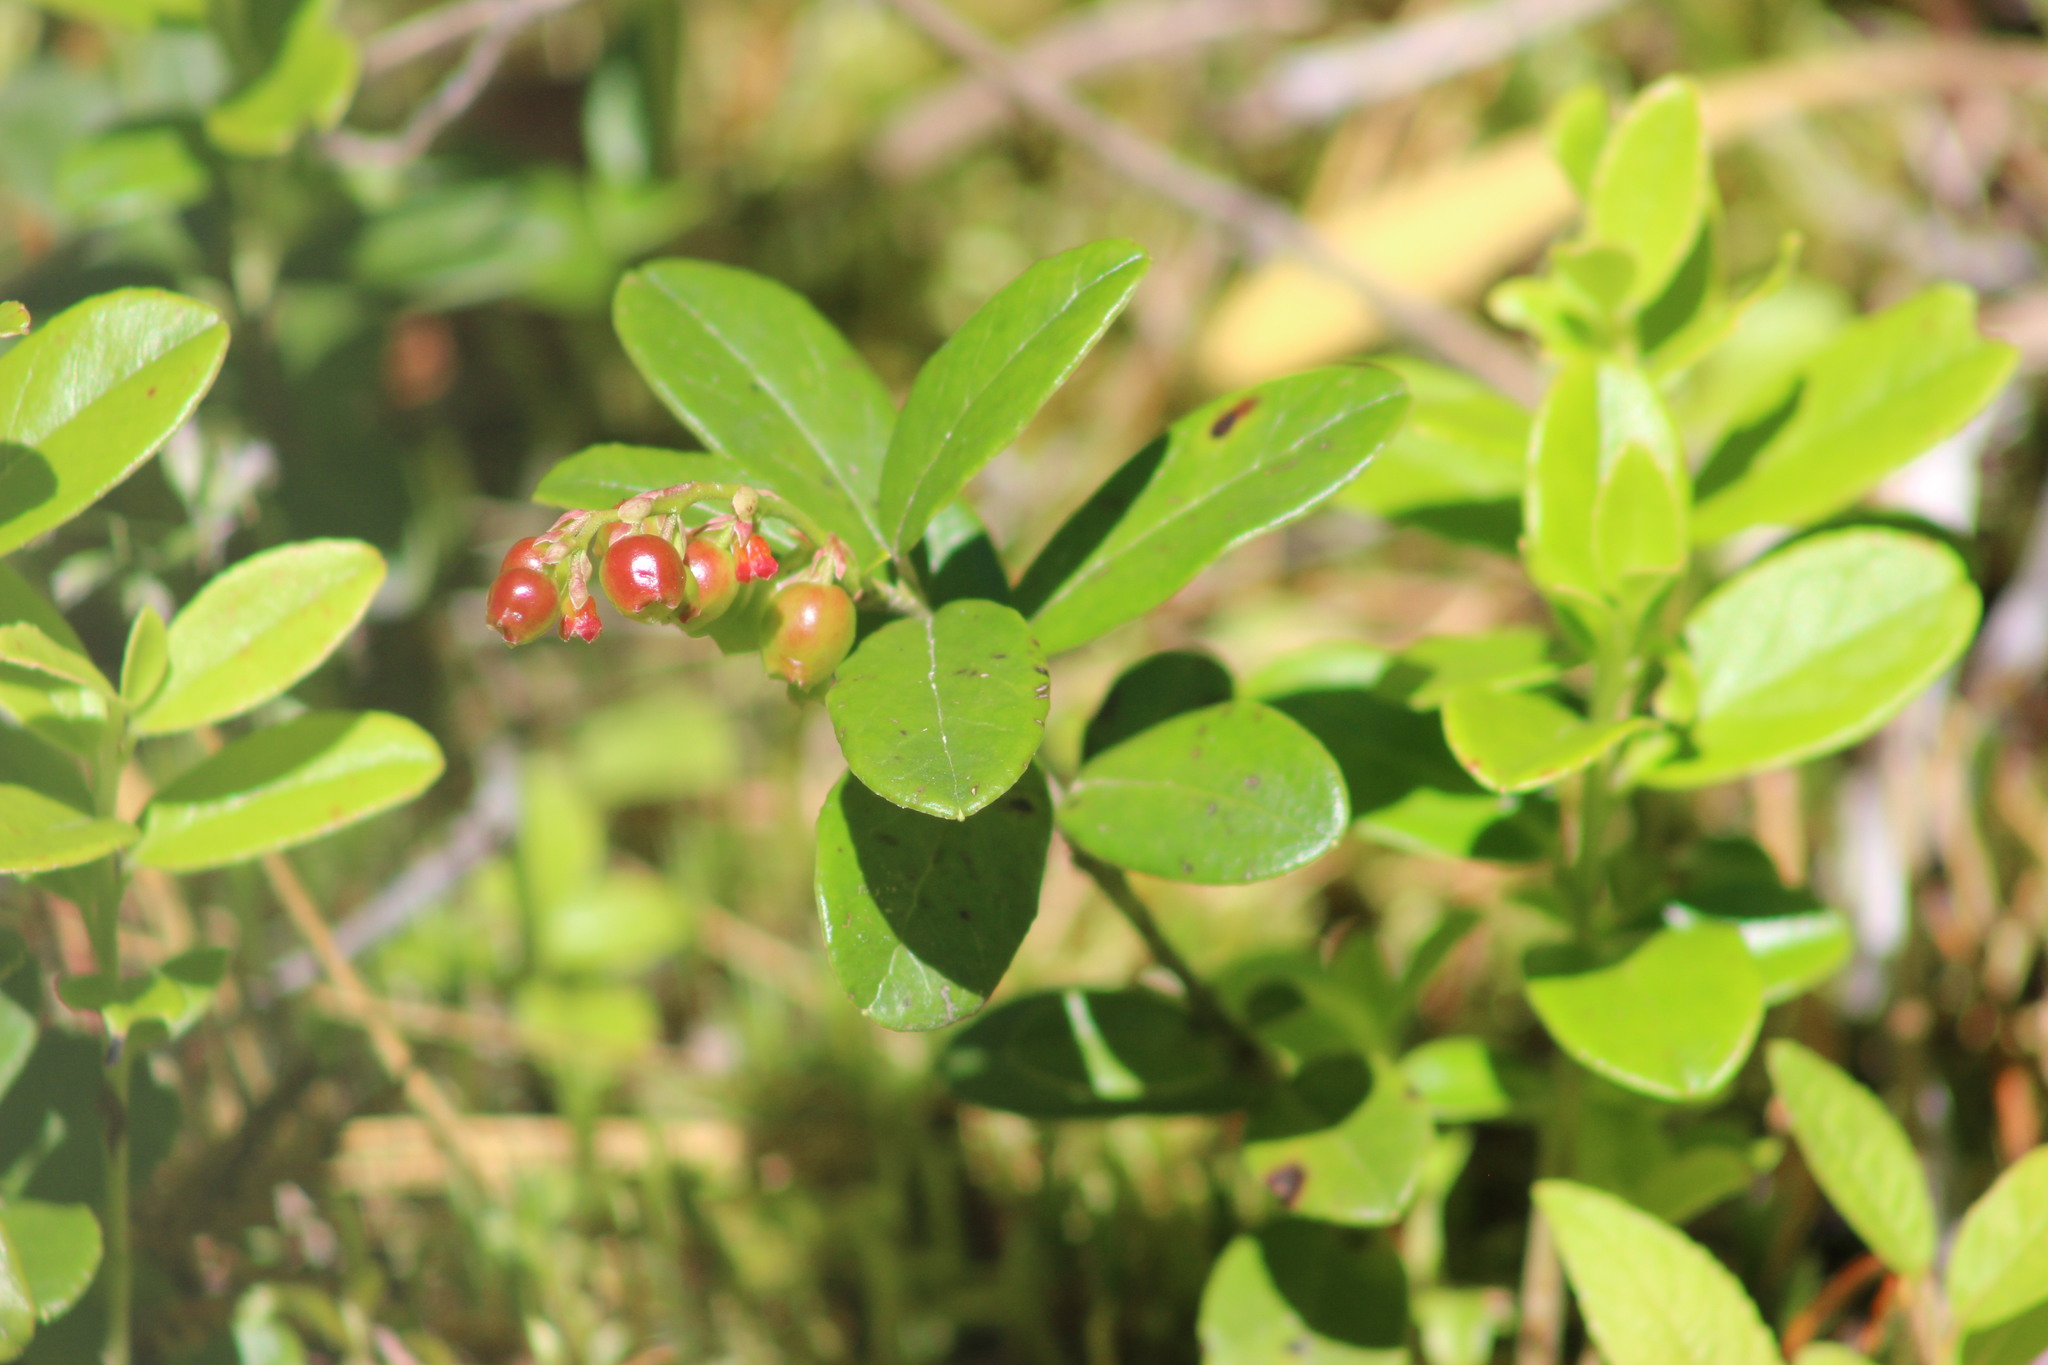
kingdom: Plantae
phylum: Tracheophyta
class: Magnoliopsida
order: Ericales
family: Ericaceae
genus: Vaccinium
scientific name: Vaccinium vitis-idaea
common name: Cowberry
